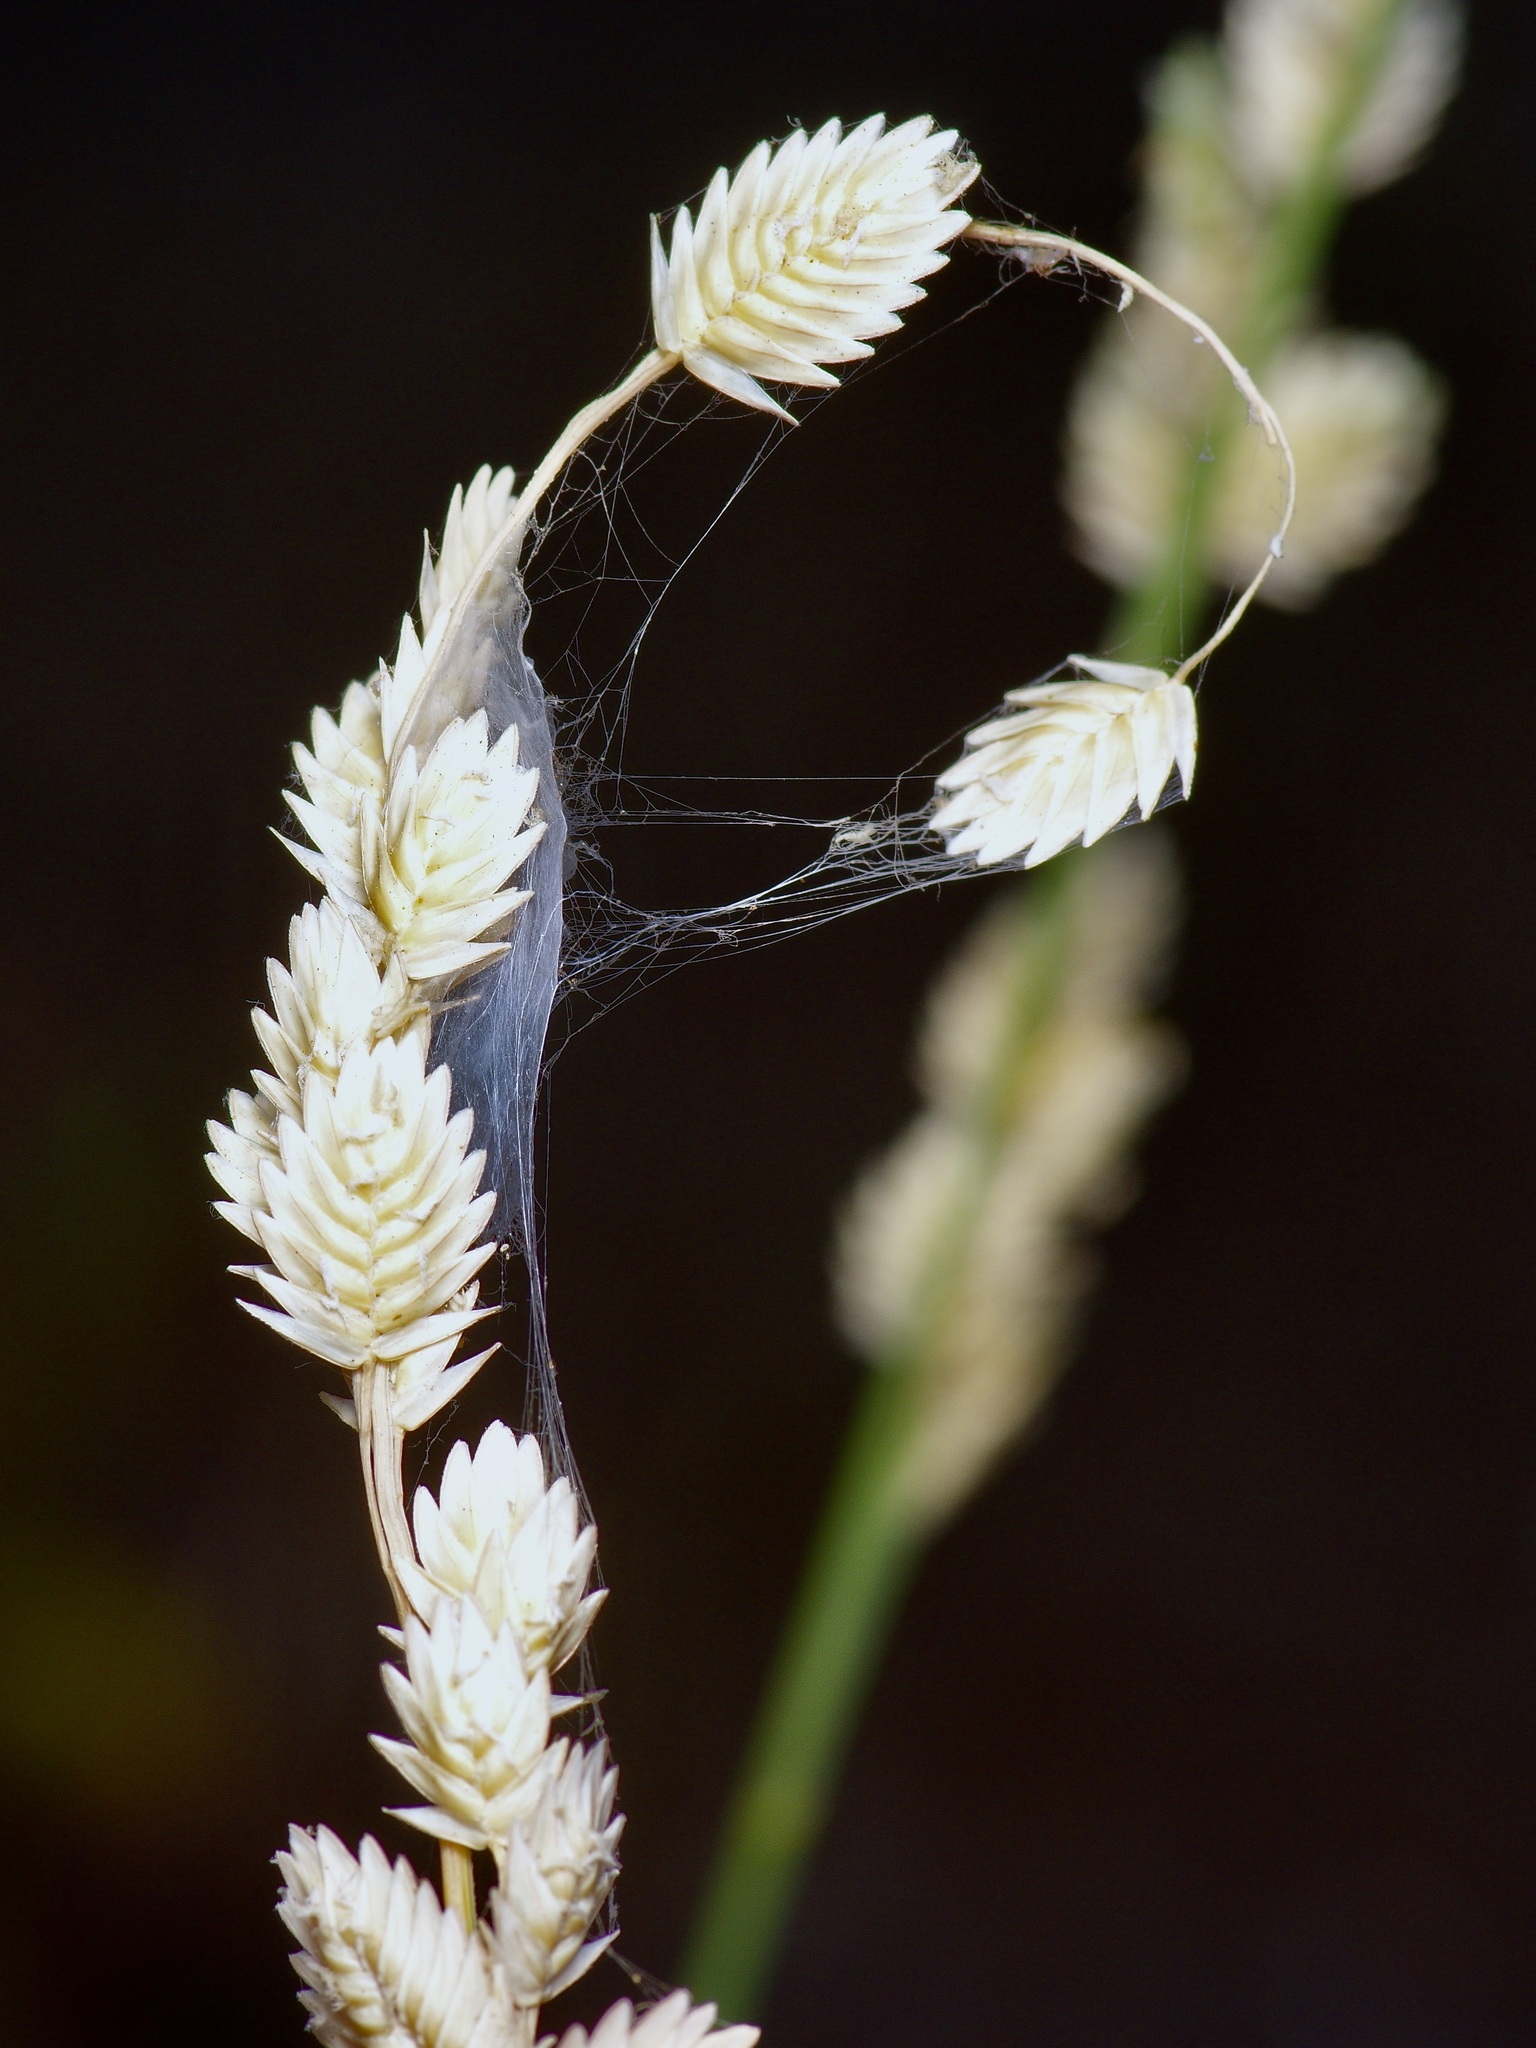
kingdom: Plantae
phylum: Tracheophyta
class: Liliopsida
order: Poales
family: Poaceae
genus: Eragrostis
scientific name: Eragrostis superba
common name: Wilman lovegrass
